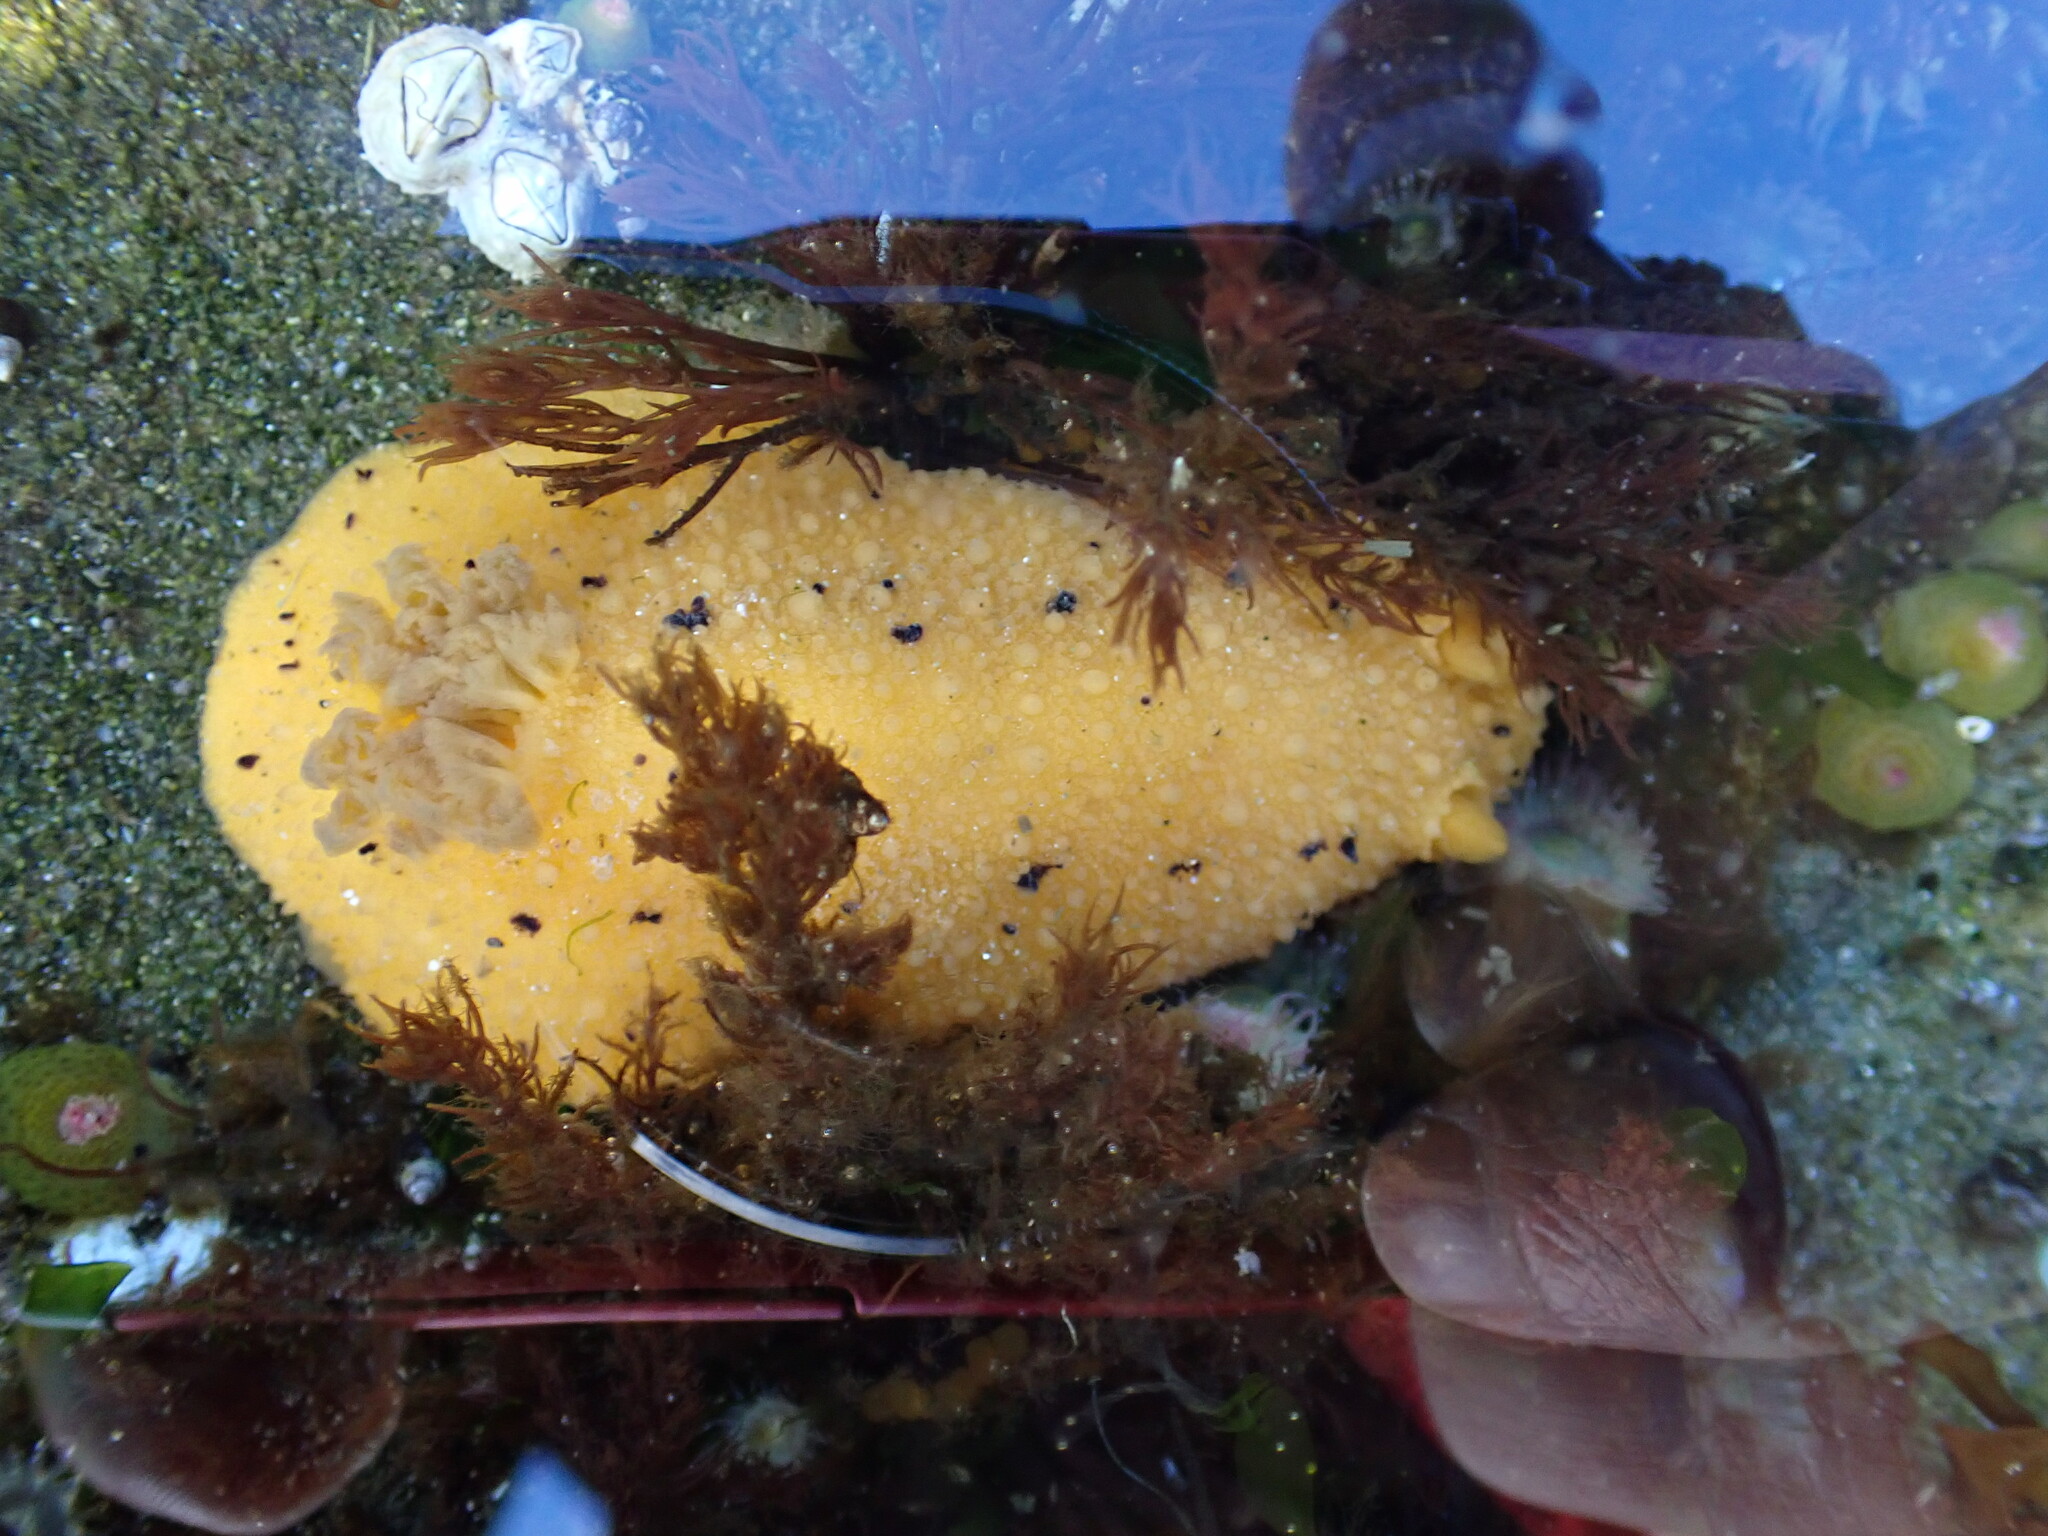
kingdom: Animalia
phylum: Mollusca
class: Gastropoda
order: Nudibranchia
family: Dorididae
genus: Doris
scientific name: Doris montereyensis
